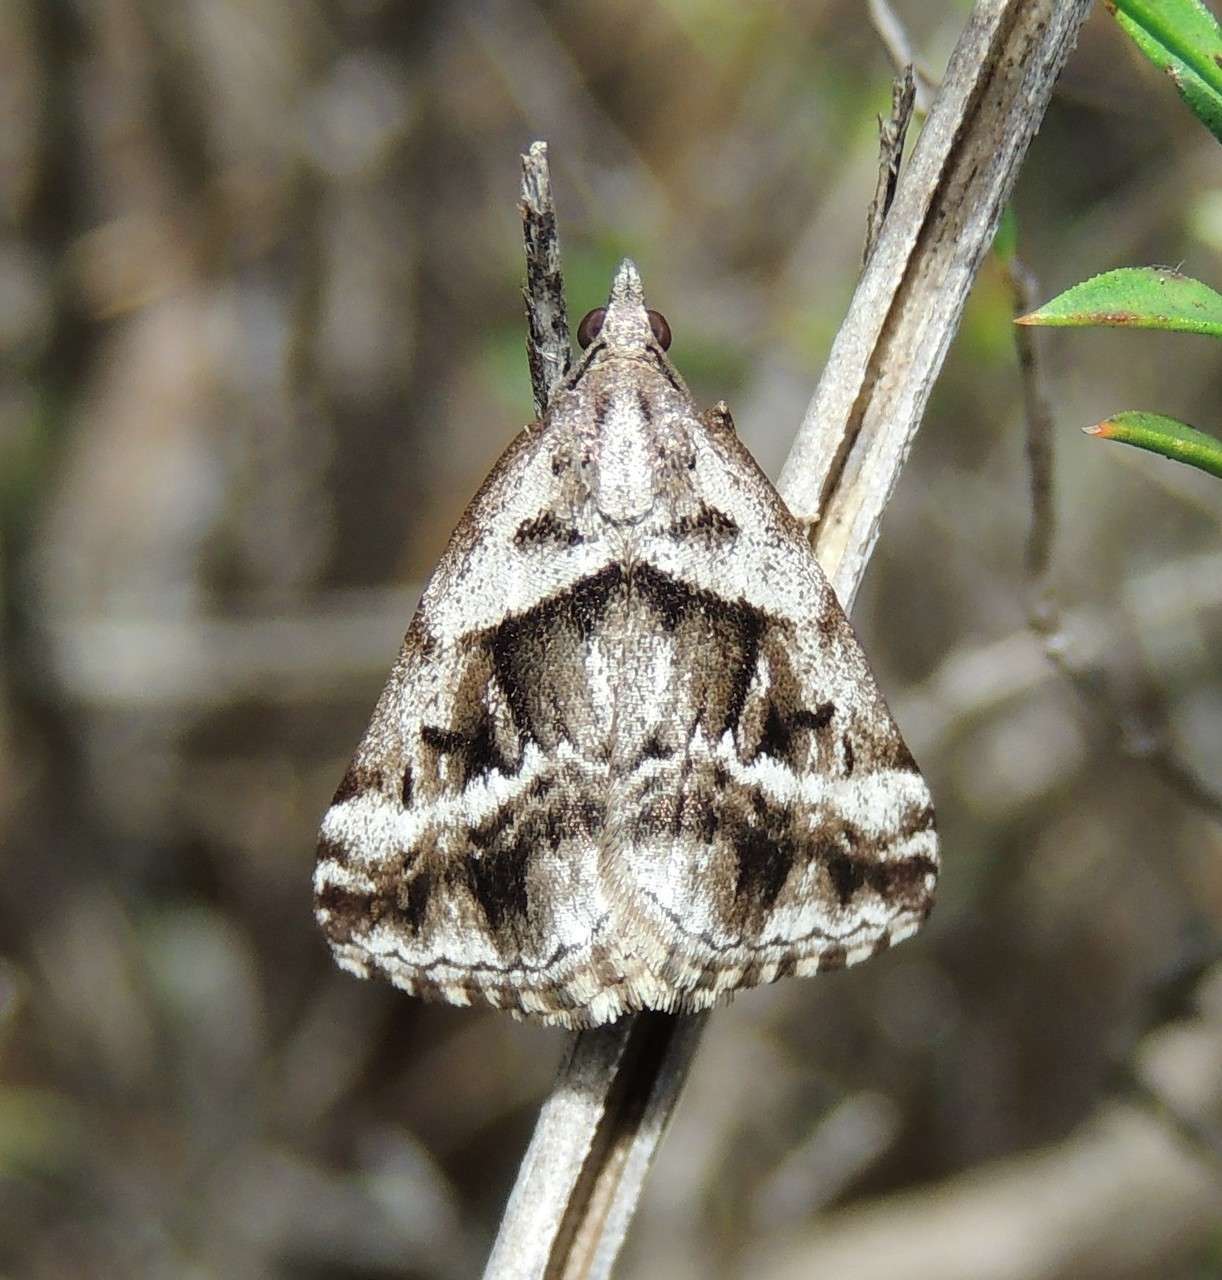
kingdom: Animalia
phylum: Arthropoda
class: Insecta
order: Lepidoptera
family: Geometridae
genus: Dichromodes
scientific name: Dichromodes stilbiata
